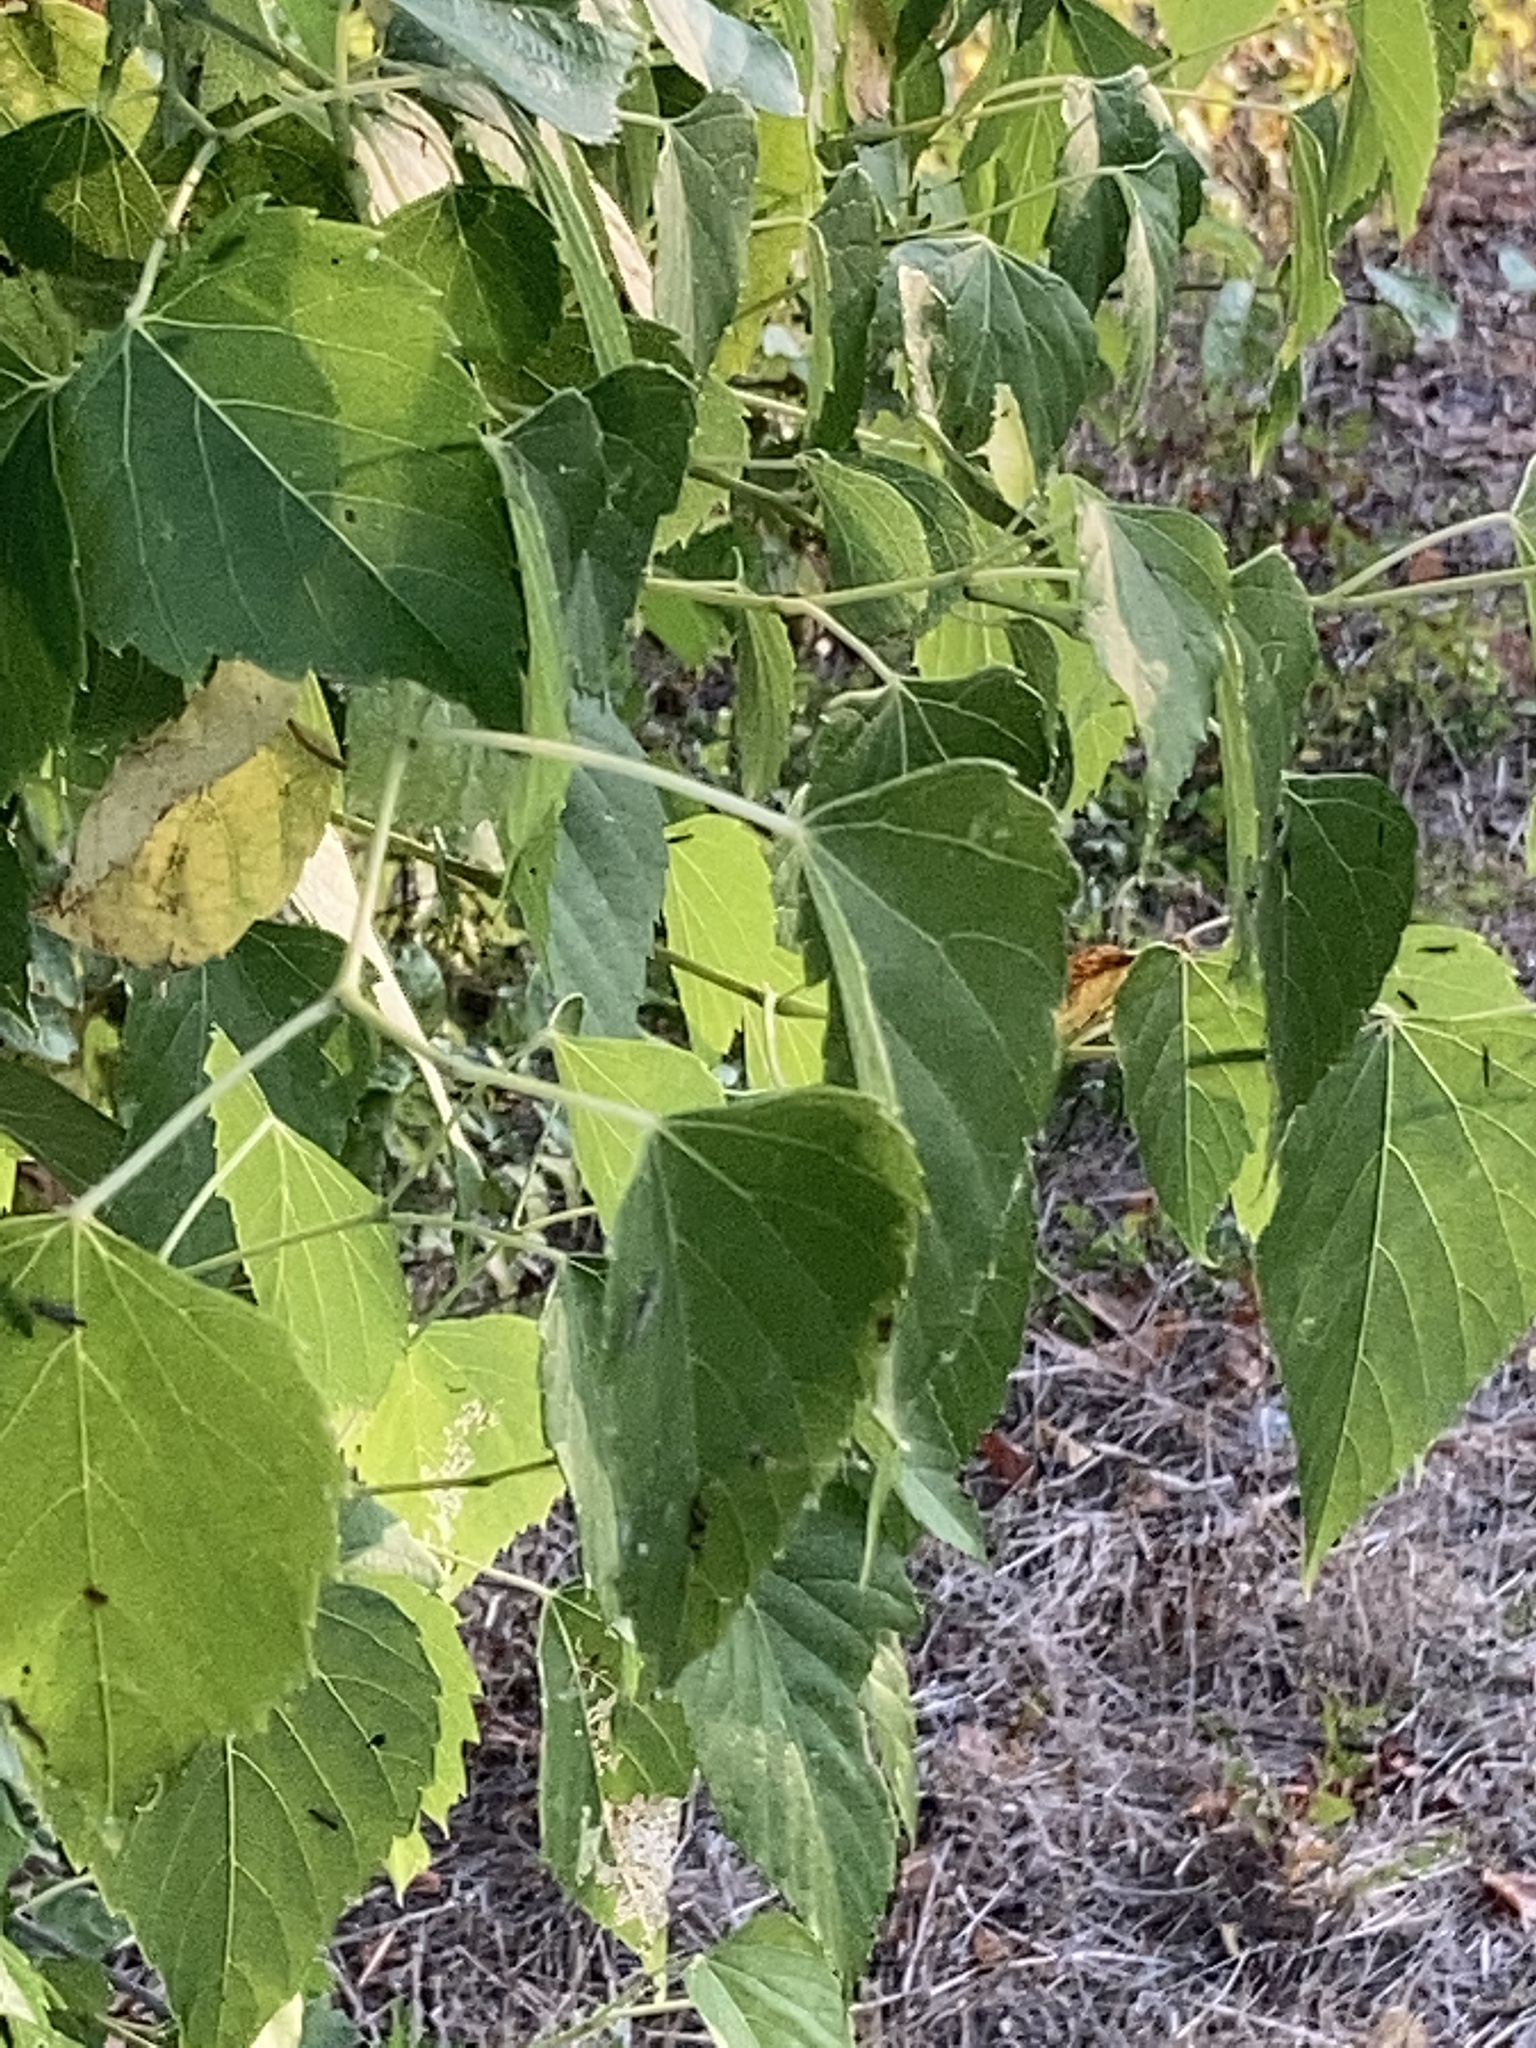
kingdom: Plantae
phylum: Tracheophyta
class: Magnoliopsida
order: Vitales
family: Vitaceae
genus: Ampelopsis
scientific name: Ampelopsis cordata
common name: Heart-leaf ampelopsis
